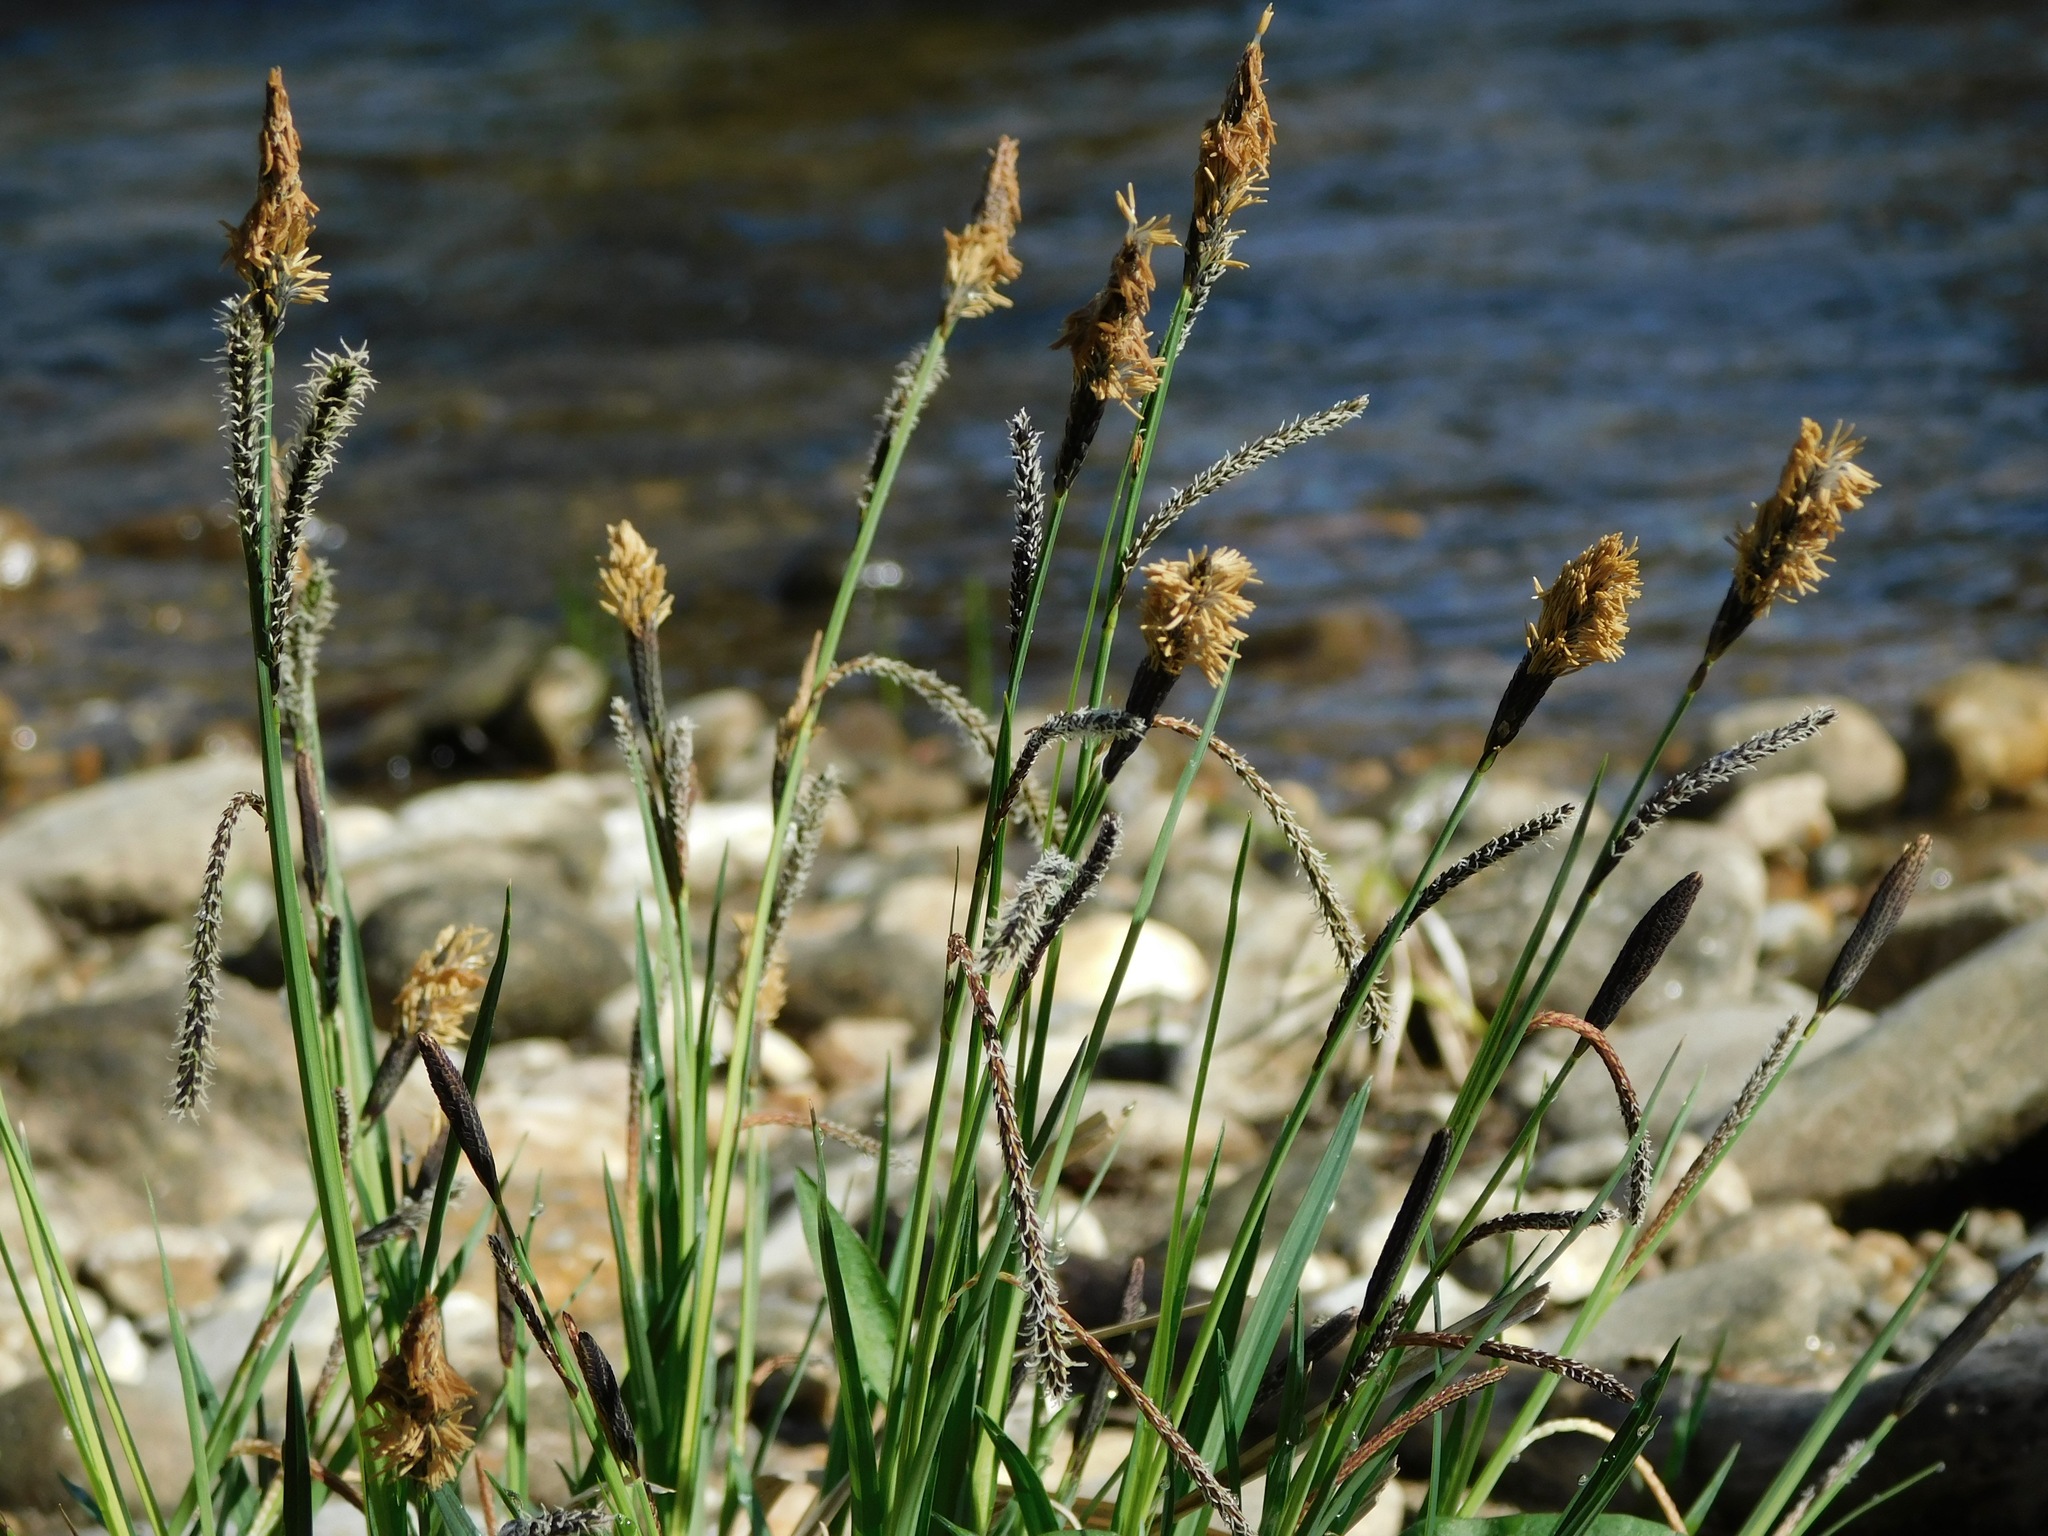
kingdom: Plantae
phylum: Tracheophyta
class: Liliopsida
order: Poales
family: Cyperaceae
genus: Carex
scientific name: Carex torta
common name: Twisted sedge
